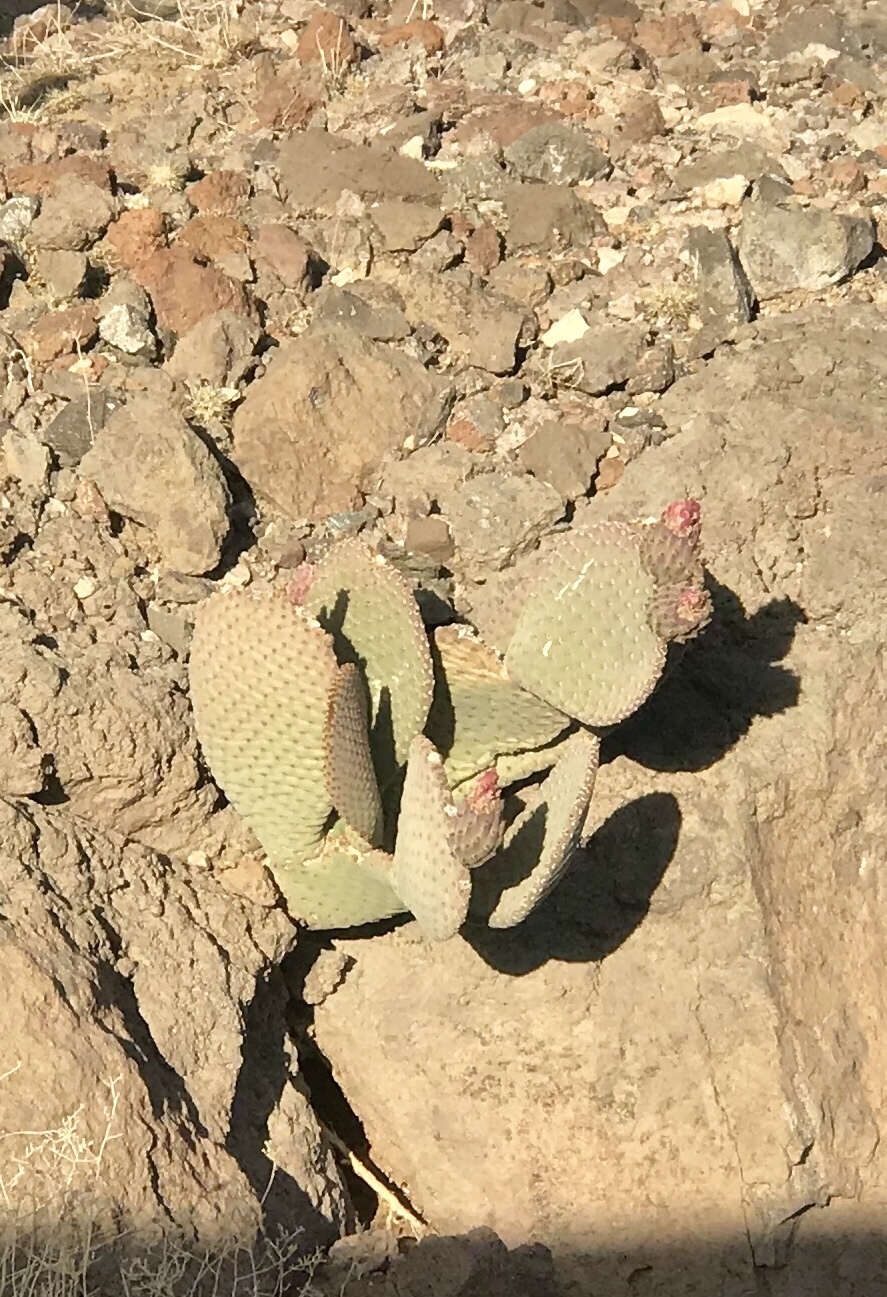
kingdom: Plantae
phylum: Tracheophyta
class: Magnoliopsida
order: Caryophyllales
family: Cactaceae
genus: Opuntia
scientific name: Opuntia basilaris
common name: Beavertail prickly-pear
